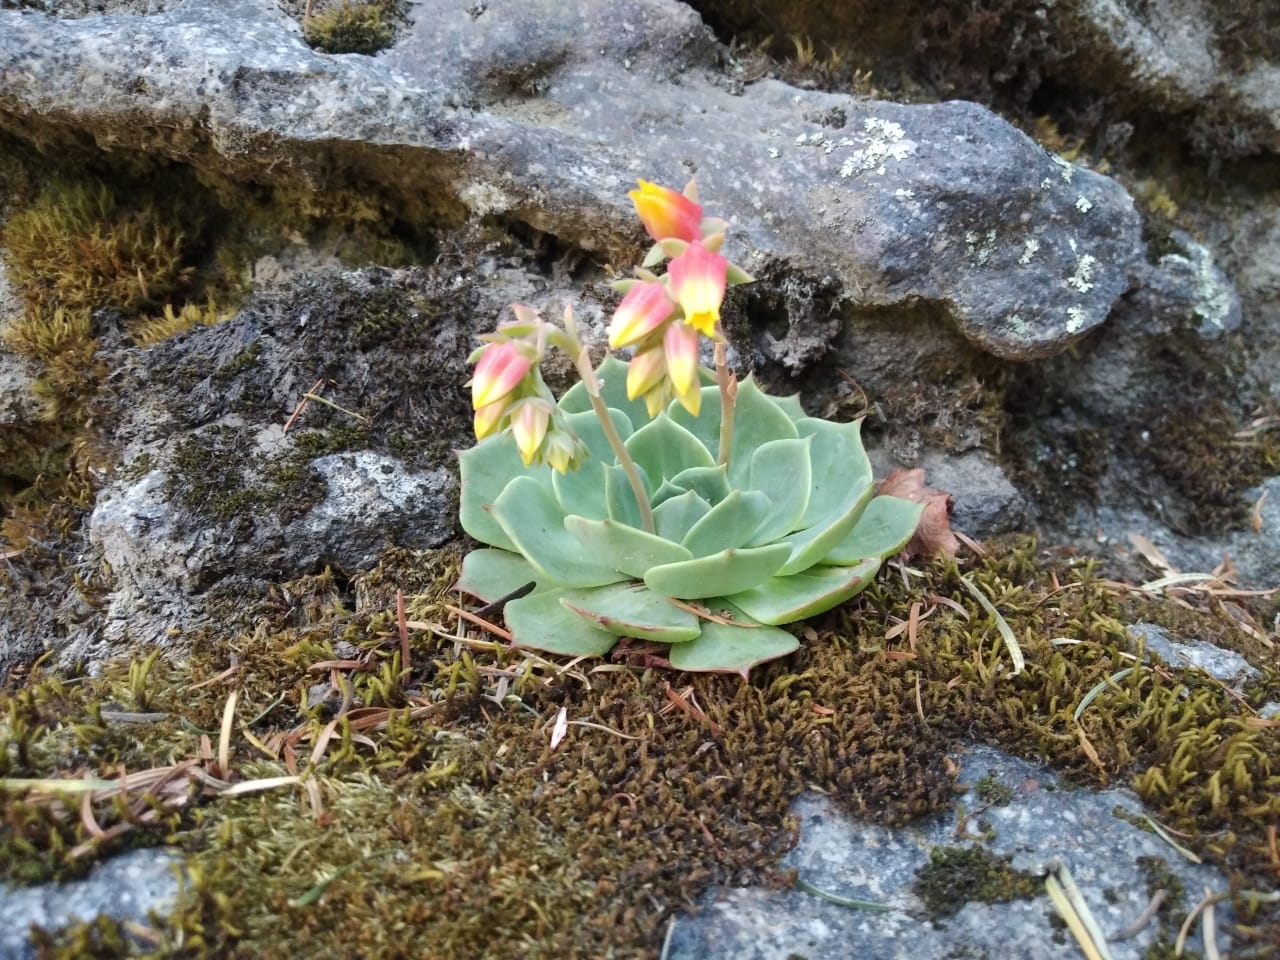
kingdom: Plantae
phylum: Tracheophyta
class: Magnoliopsida
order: Saxifragales
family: Crassulaceae
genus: Echeveria
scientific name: Echeveria secunda
